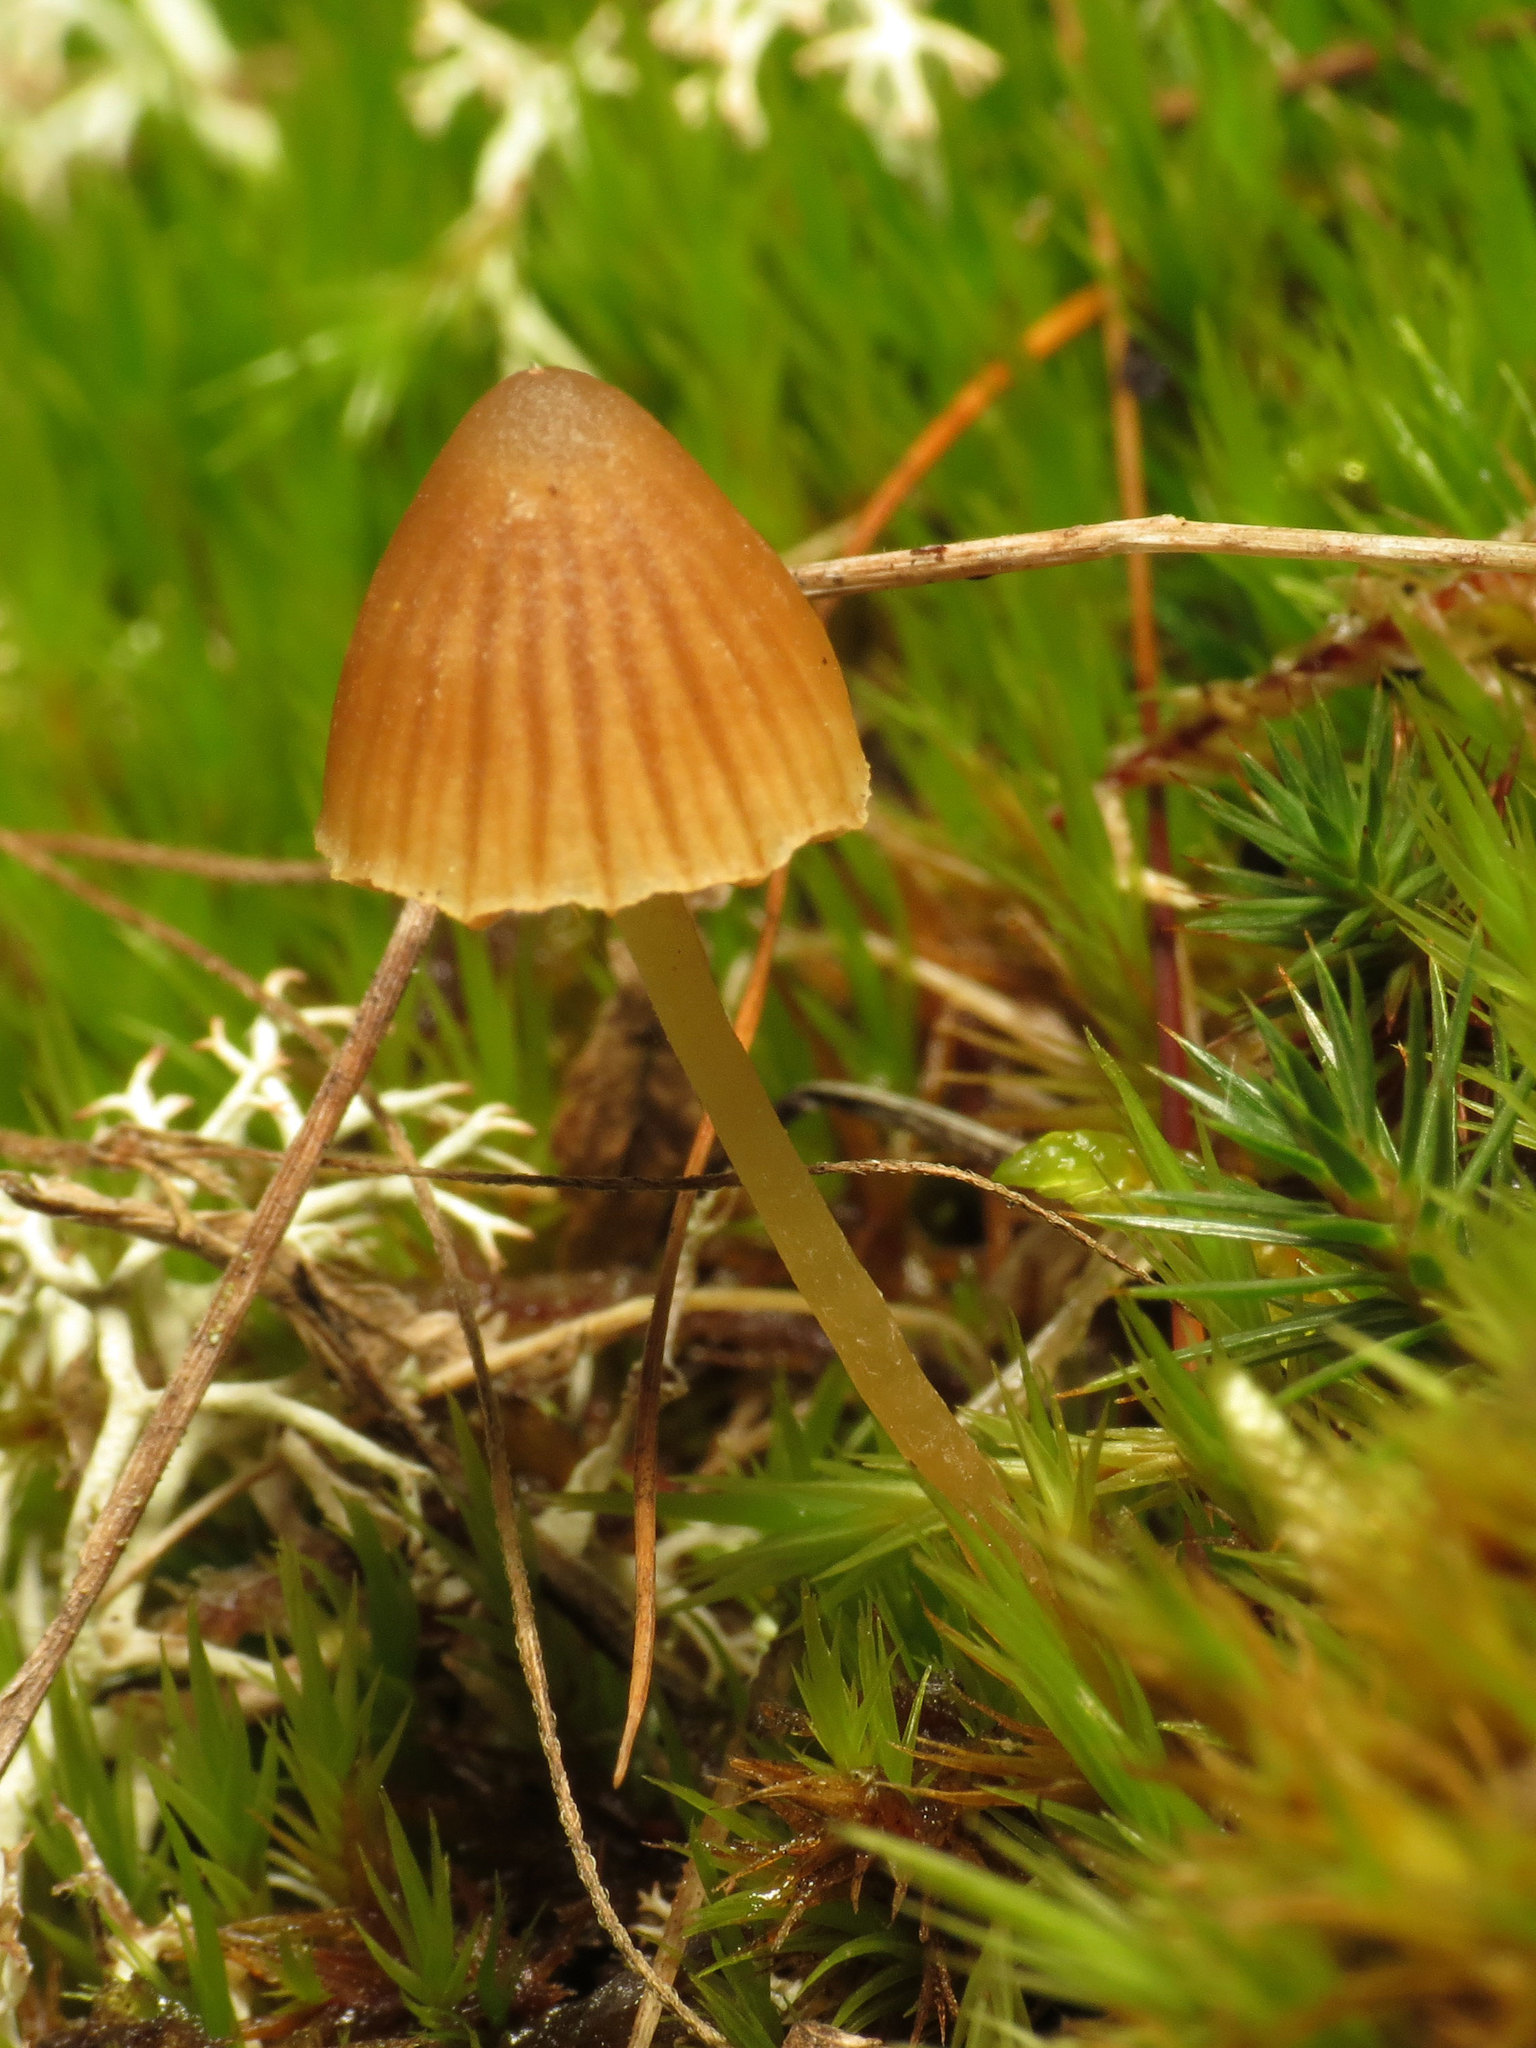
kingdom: Fungi
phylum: Basidiomycota
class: Agaricomycetes
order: Agaricales
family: Hymenogastraceae
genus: Galerina
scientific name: Galerina
